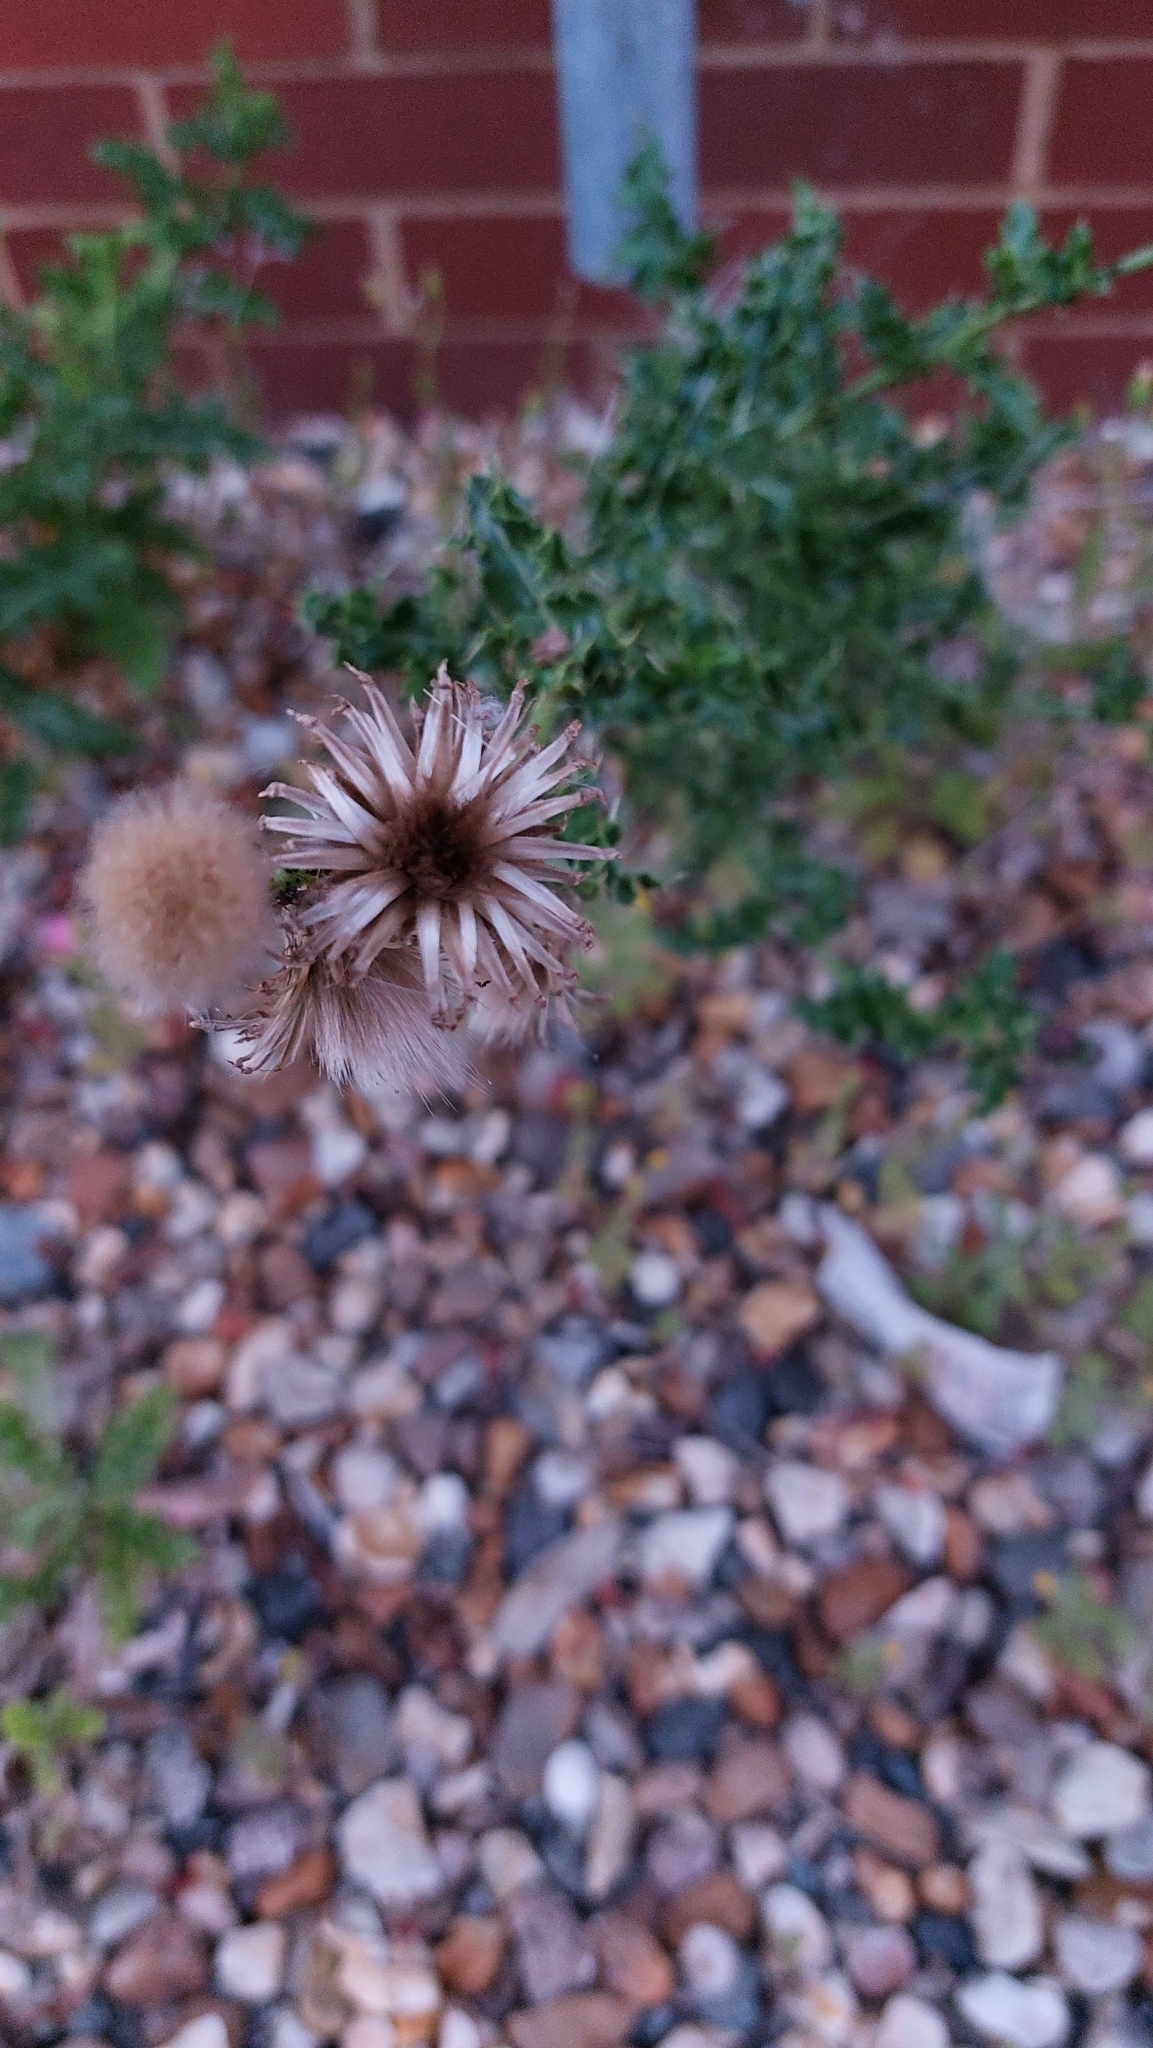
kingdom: Plantae
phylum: Tracheophyta
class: Magnoliopsida
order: Asterales
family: Asteraceae
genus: Cirsium
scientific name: Cirsium arvense
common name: Creeping thistle
